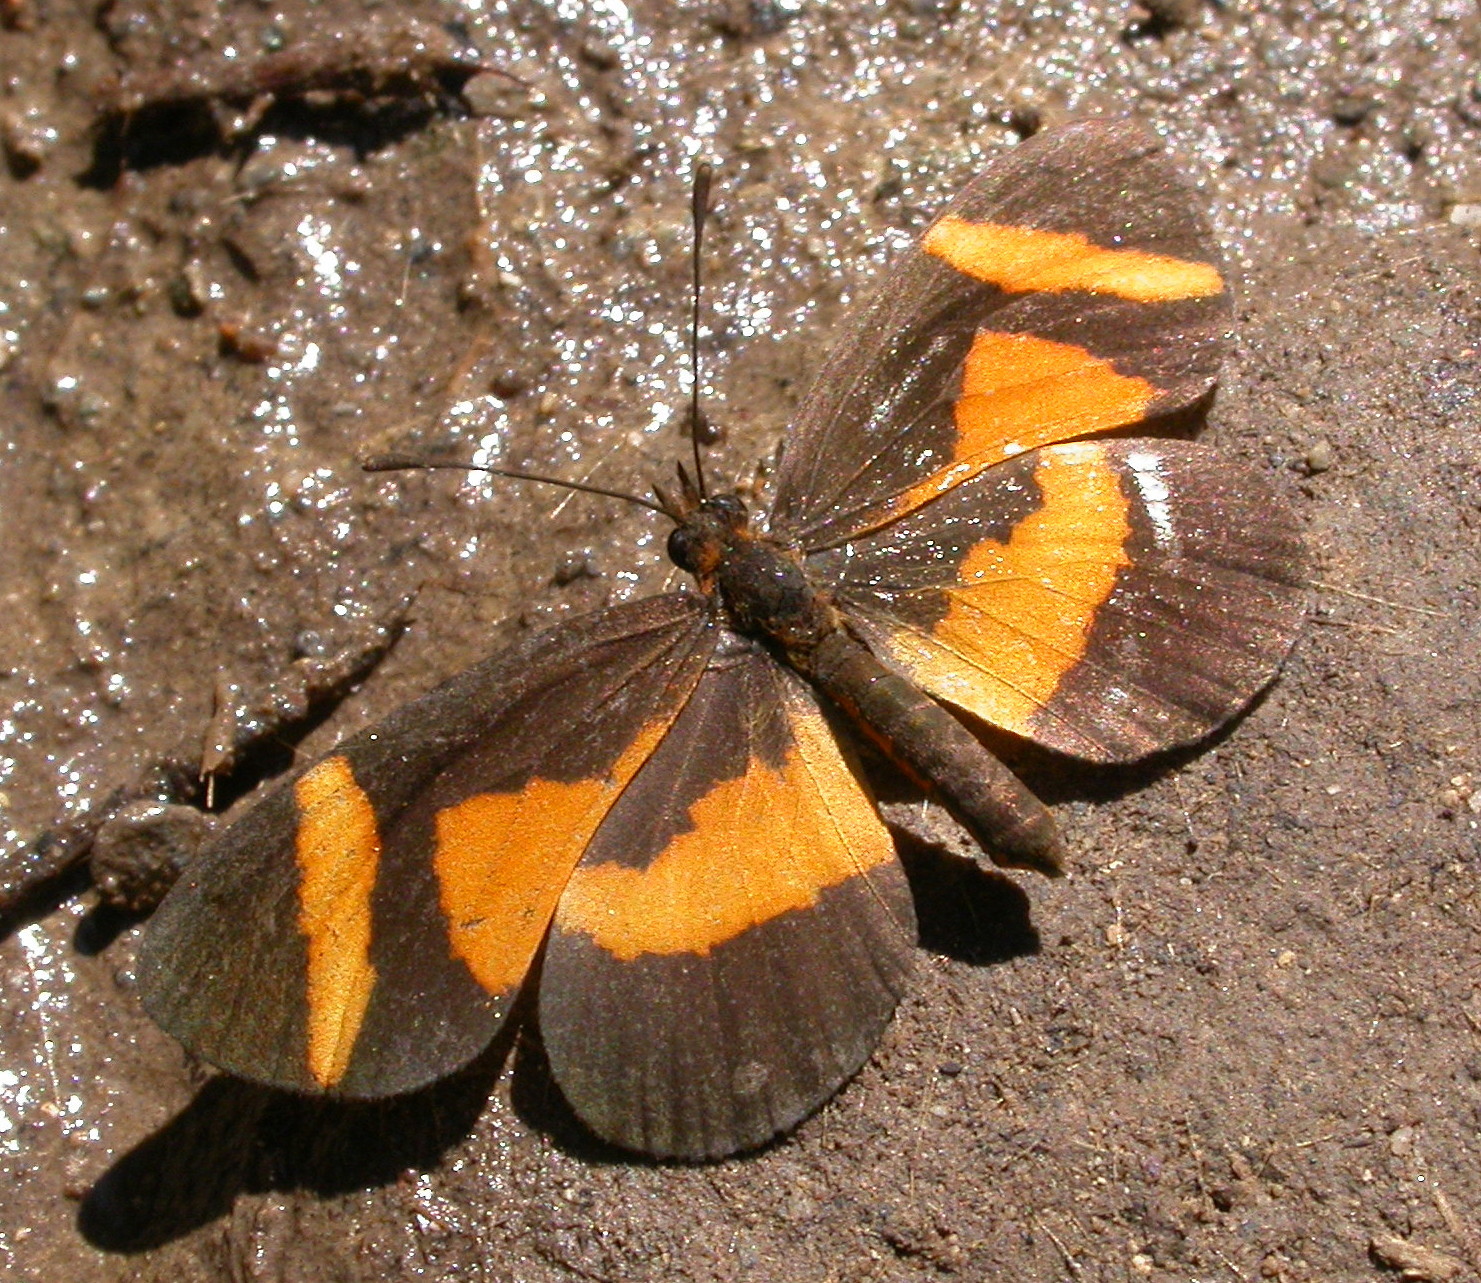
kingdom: Animalia
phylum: Arthropoda
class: Insecta
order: Lepidoptera
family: Nymphalidae
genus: Microtia
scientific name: Microtia elva
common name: Elf
